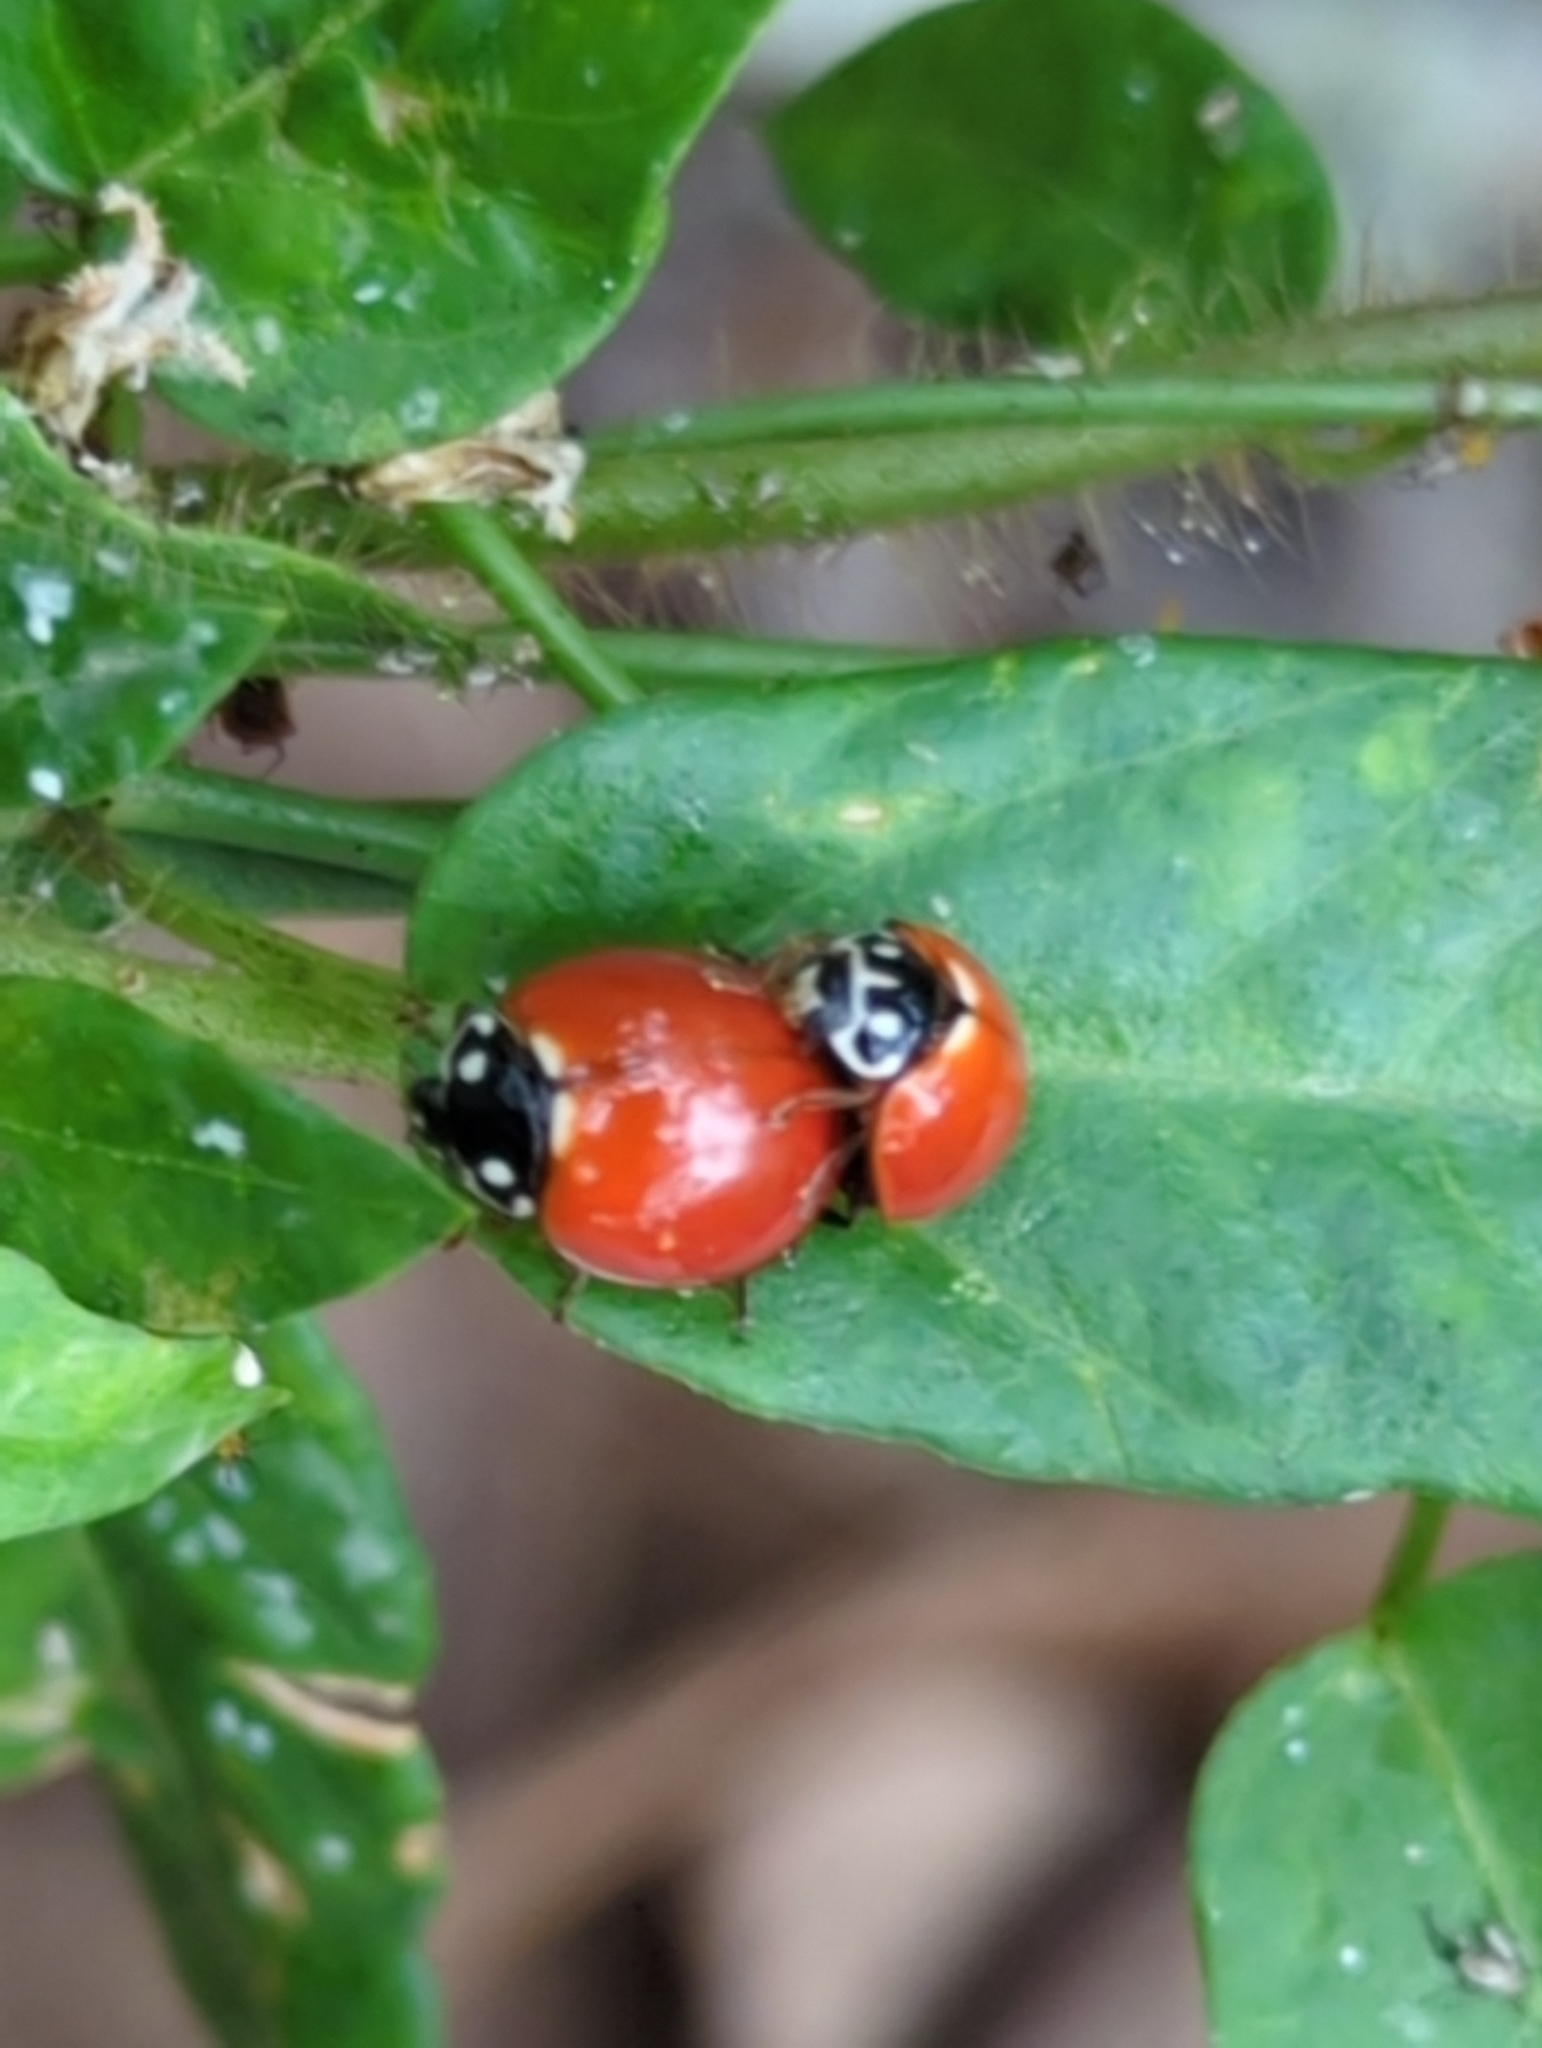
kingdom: Animalia
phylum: Arthropoda
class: Insecta
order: Coleoptera
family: Coccinellidae
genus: Cycloneda
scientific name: Cycloneda sanguinea
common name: Ladybird beetle
